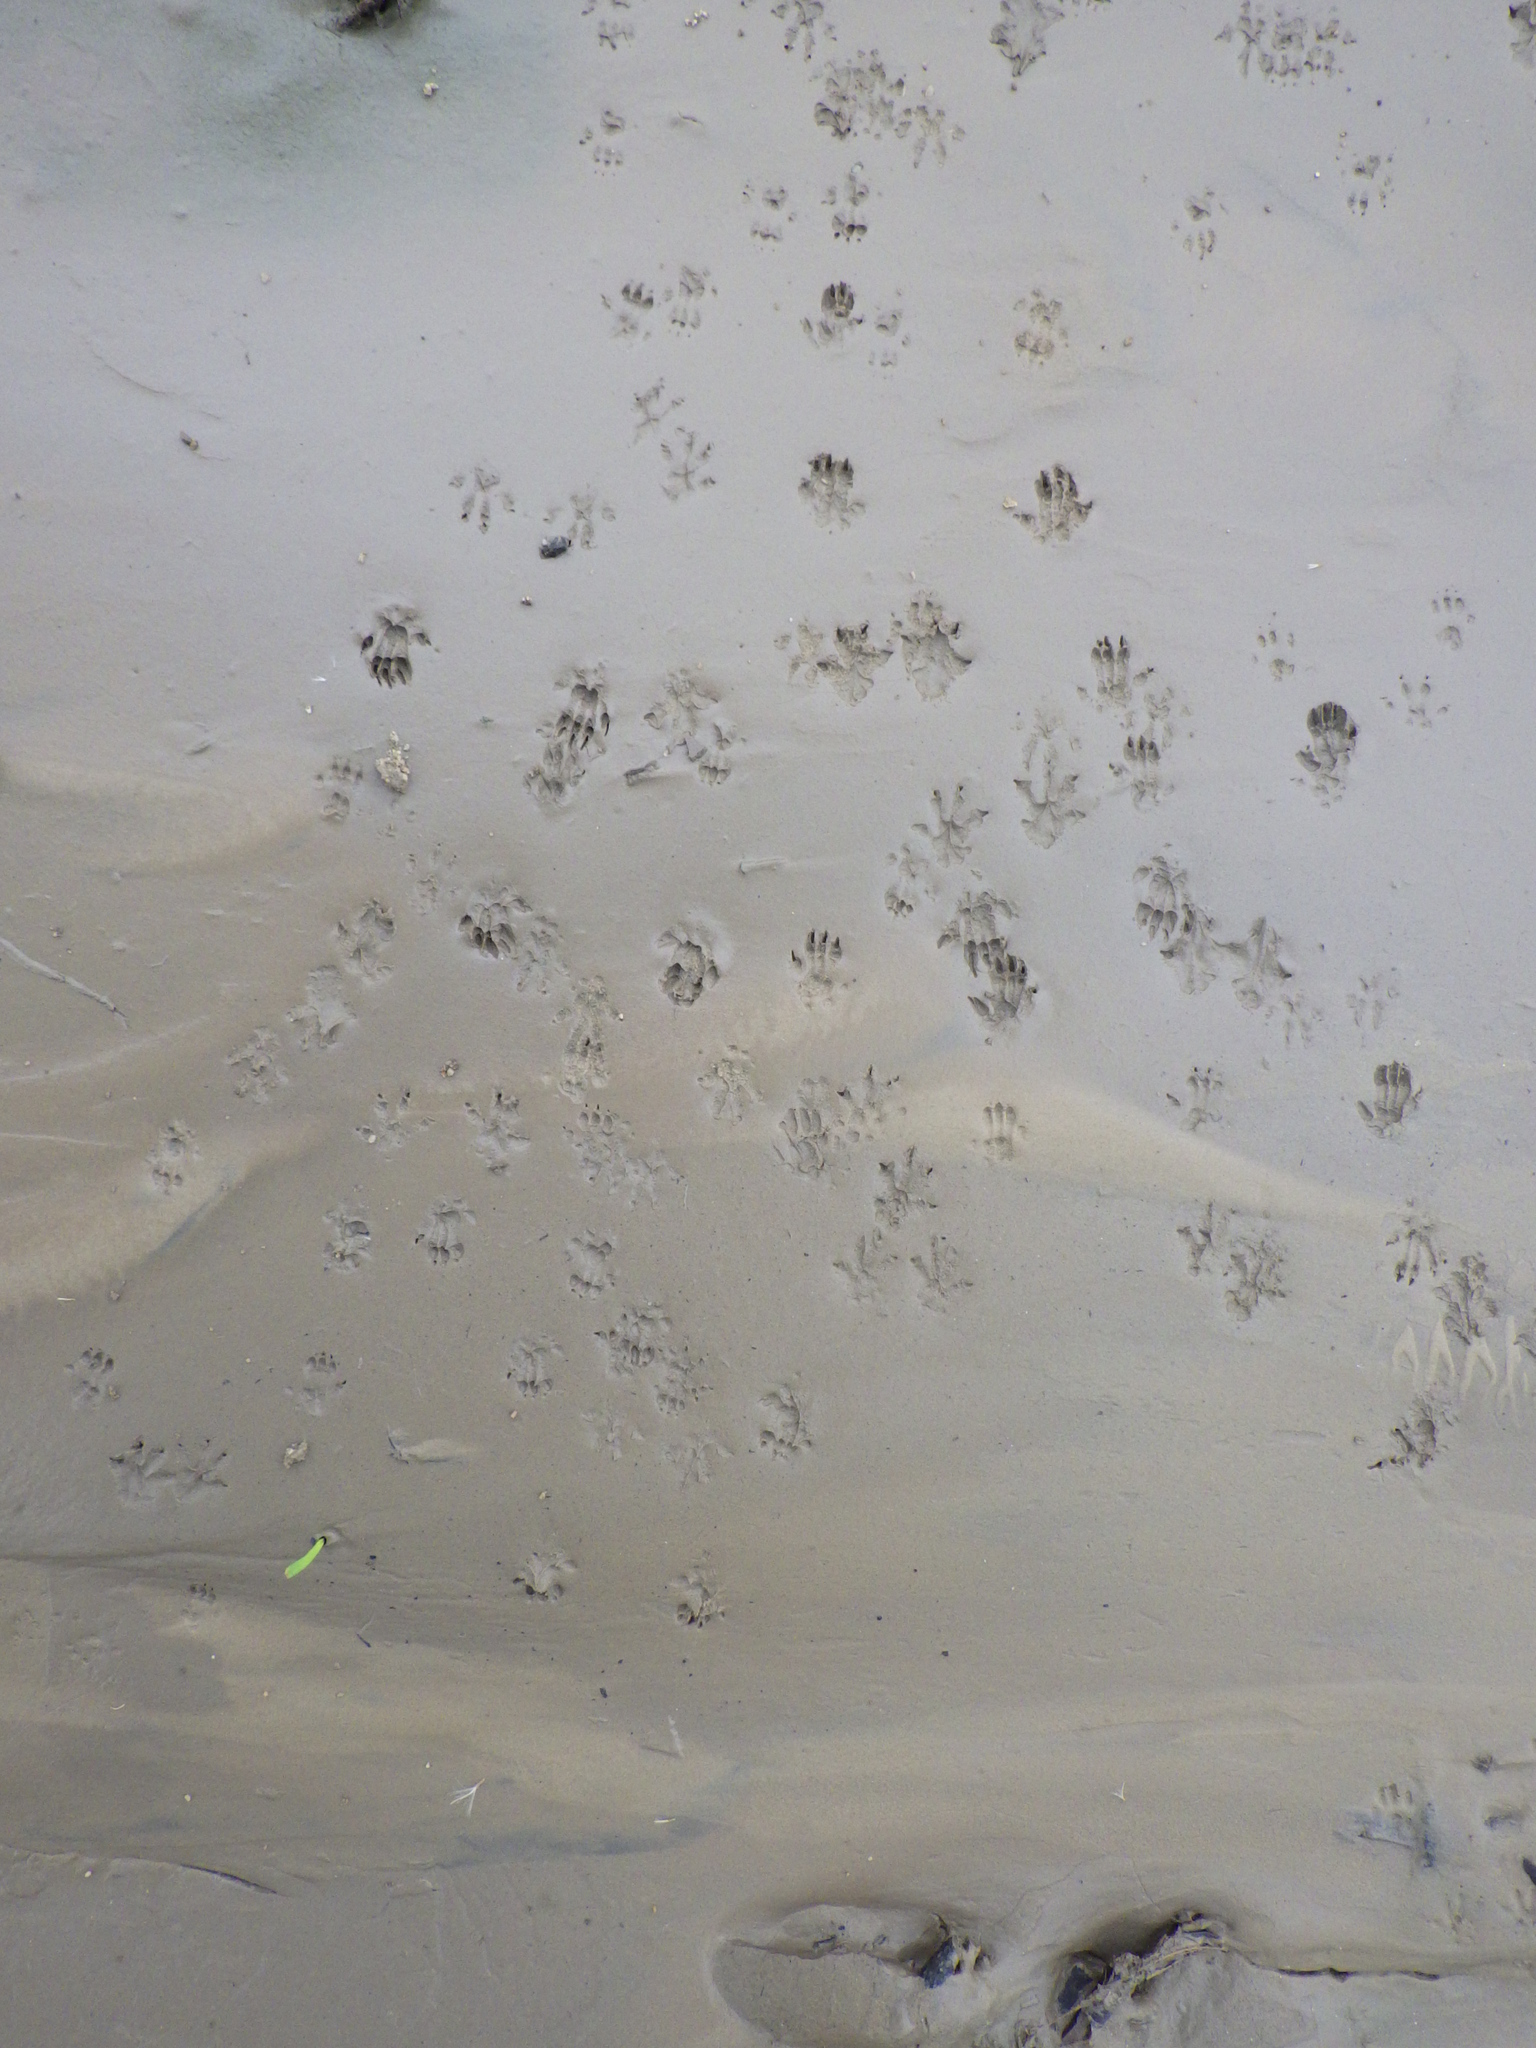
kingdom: Animalia
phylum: Chordata
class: Mammalia
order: Rodentia
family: Cricetidae
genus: Reithrodontomys
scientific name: Reithrodontomys megalotis
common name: Western harvest mouse
